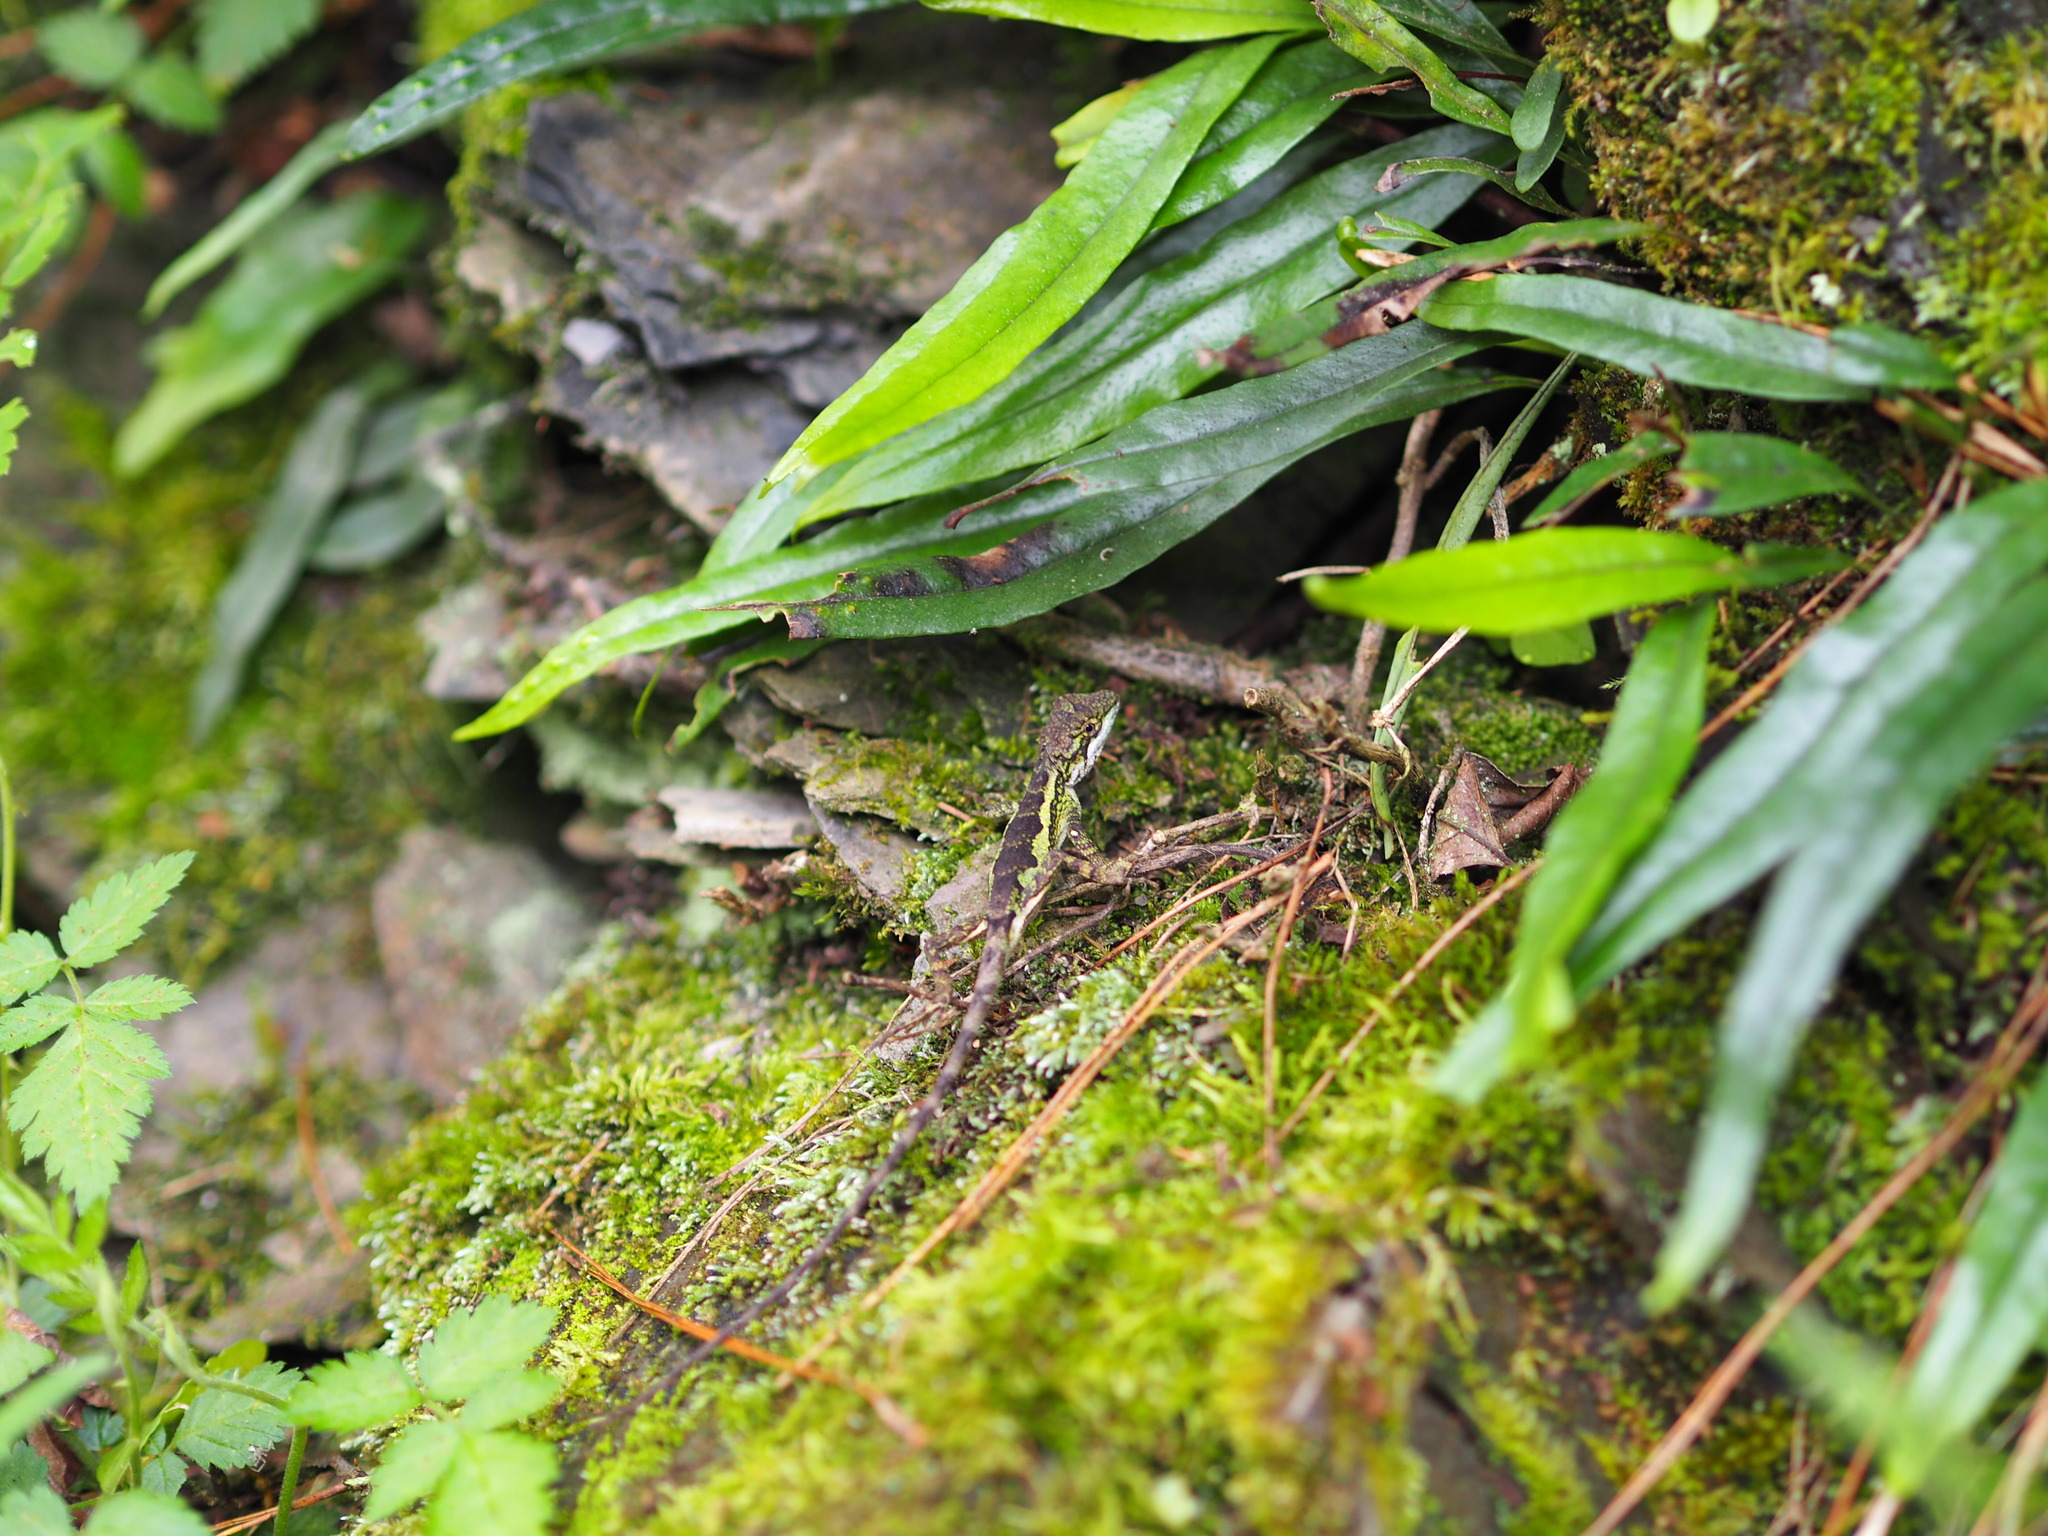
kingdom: Animalia
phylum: Chordata
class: Squamata
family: Agamidae
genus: Diploderma
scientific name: Diploderma brevipes
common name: Short-legged japalure
